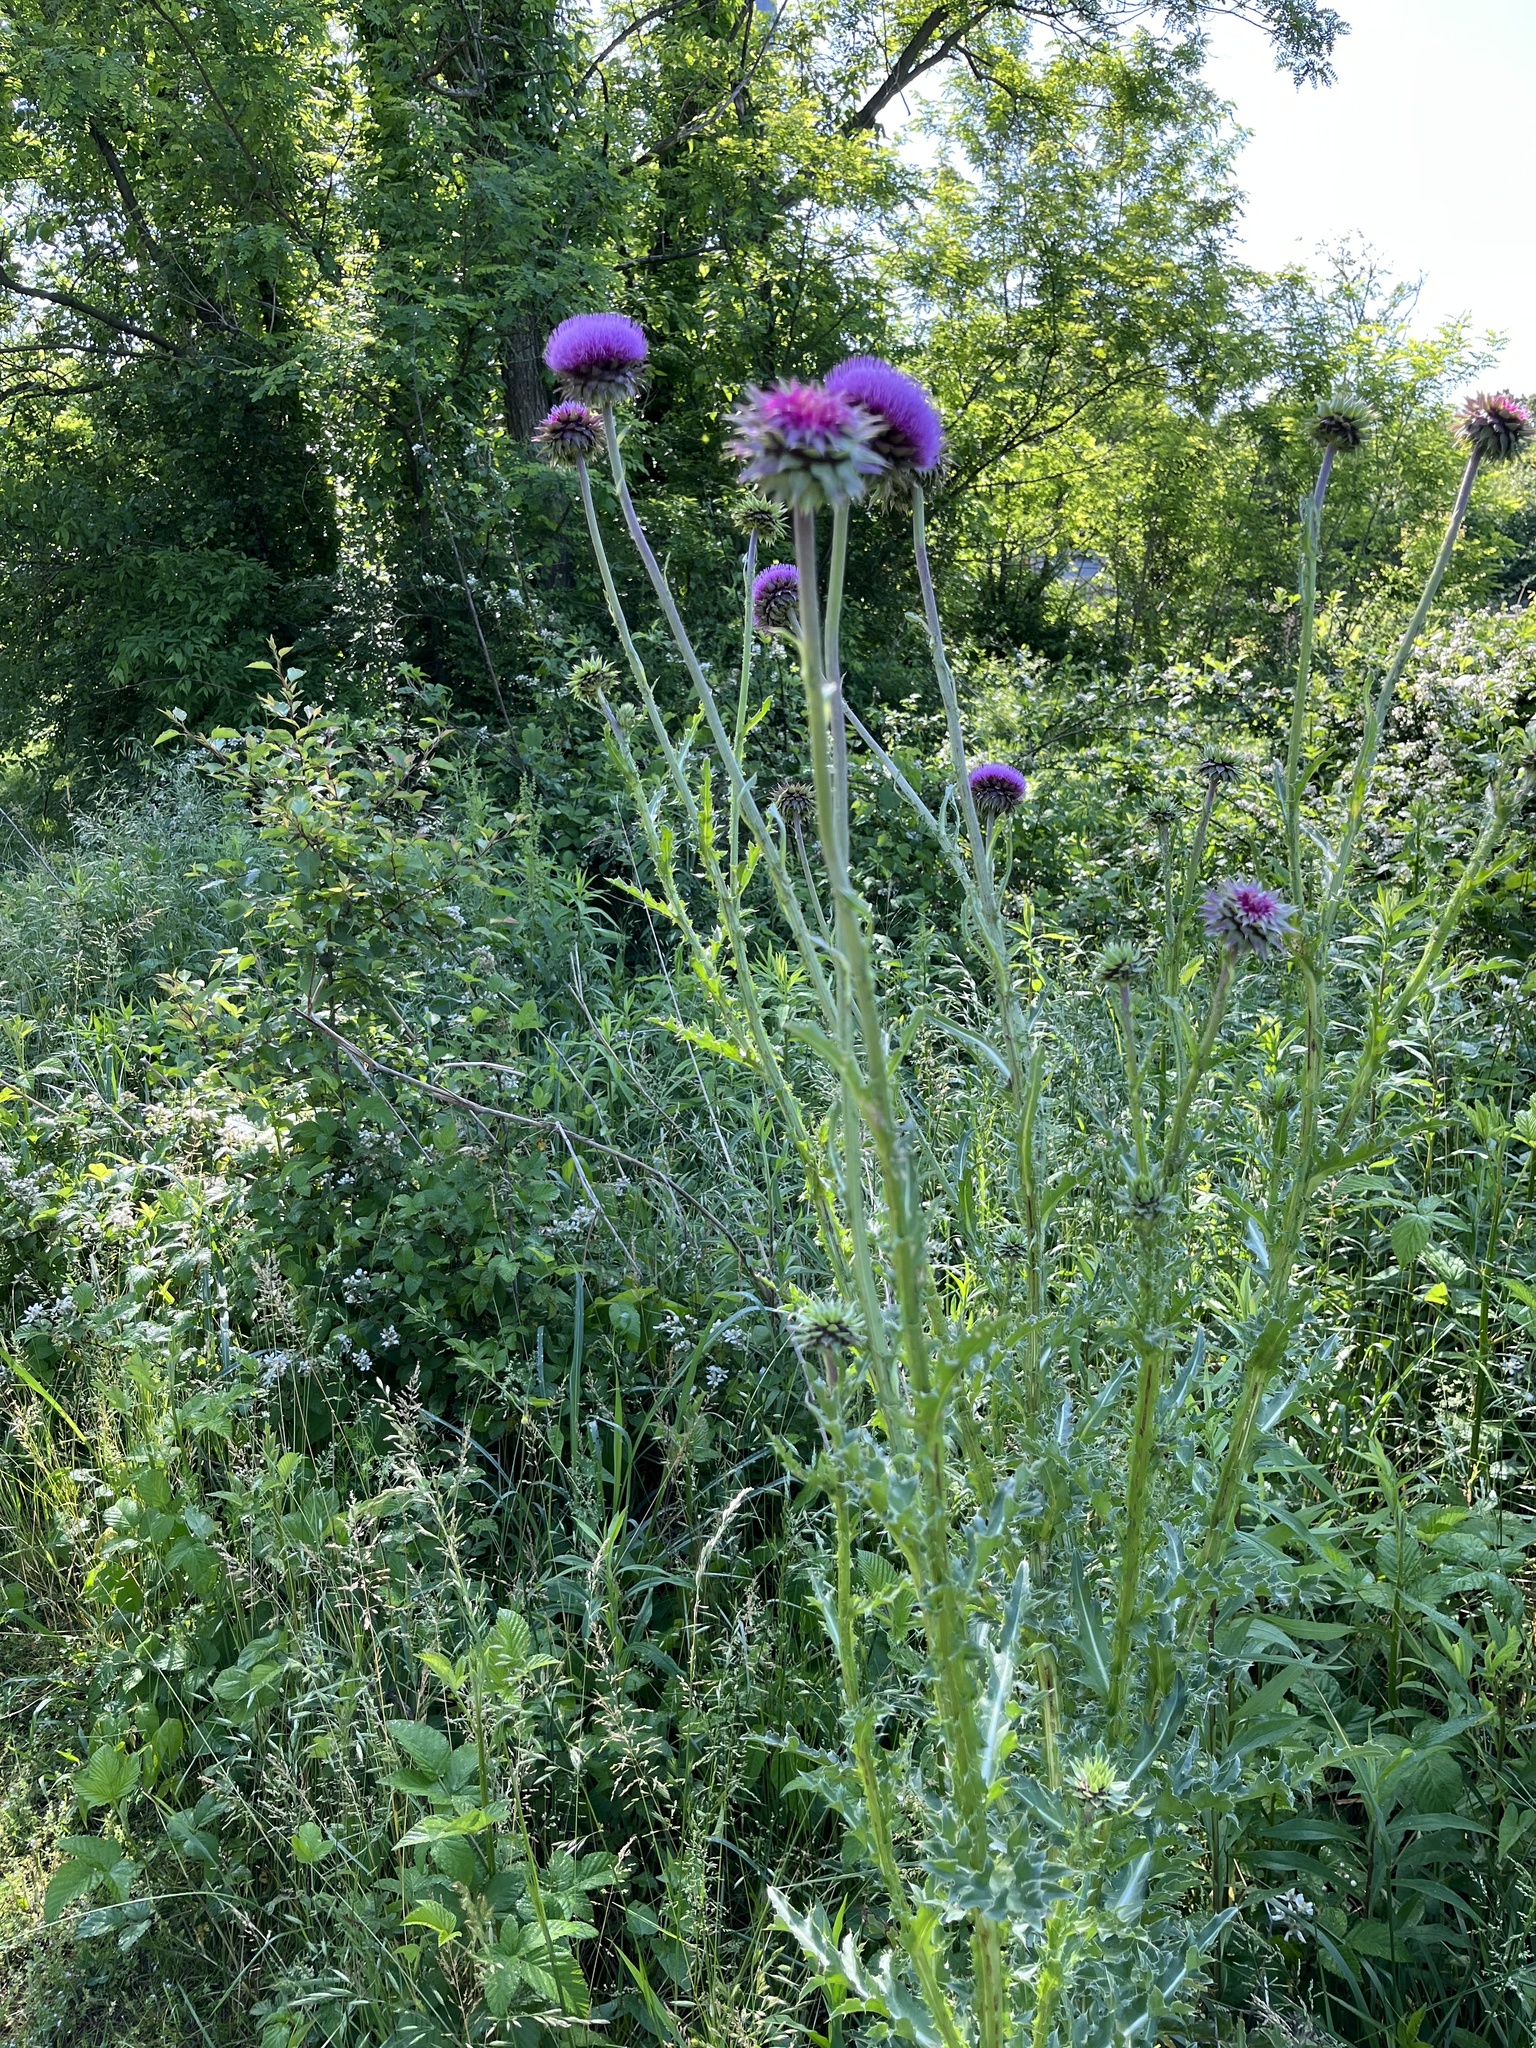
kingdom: Plantae
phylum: Tracheophyta
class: Magnoliopsida
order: Asterales
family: Asteraceae
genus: Carduus
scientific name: Carduus nutans
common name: Musk thistle
